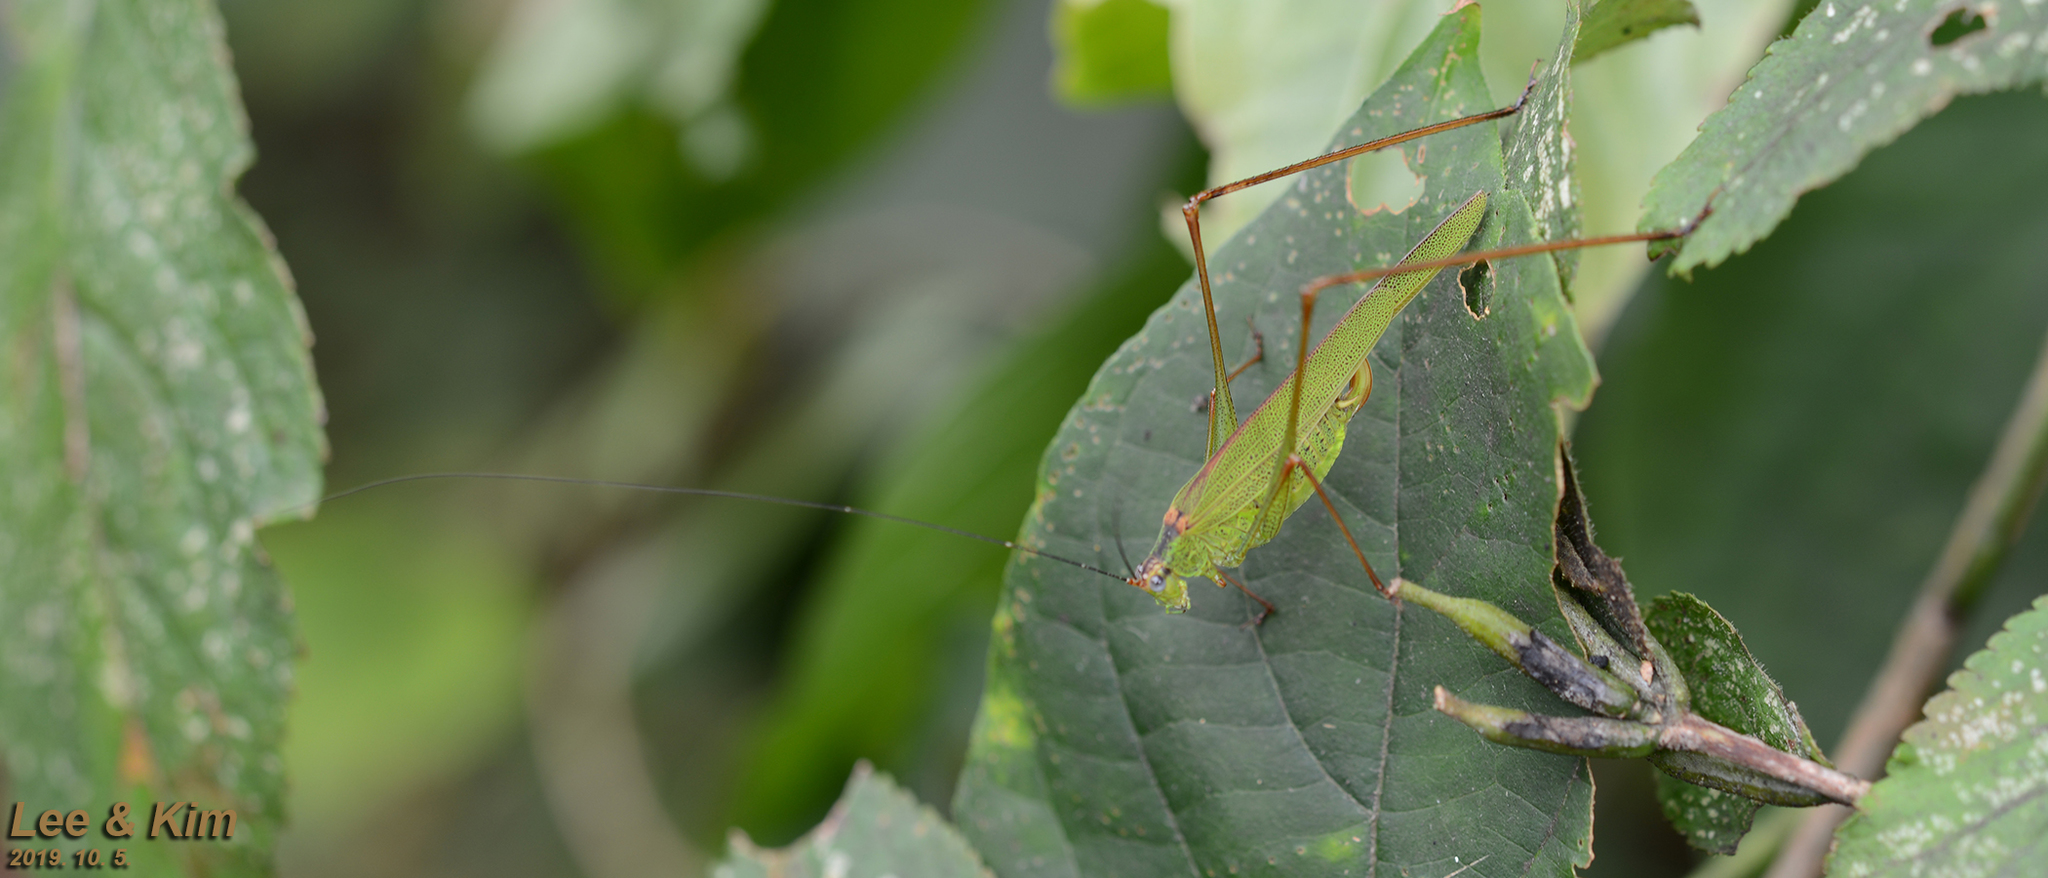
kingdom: Animalia
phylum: Arthropoda
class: Insecta
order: Orthoptera
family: Tettigoniidae
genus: Phaneroptera
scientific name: Phaneroptera nigroantennata
